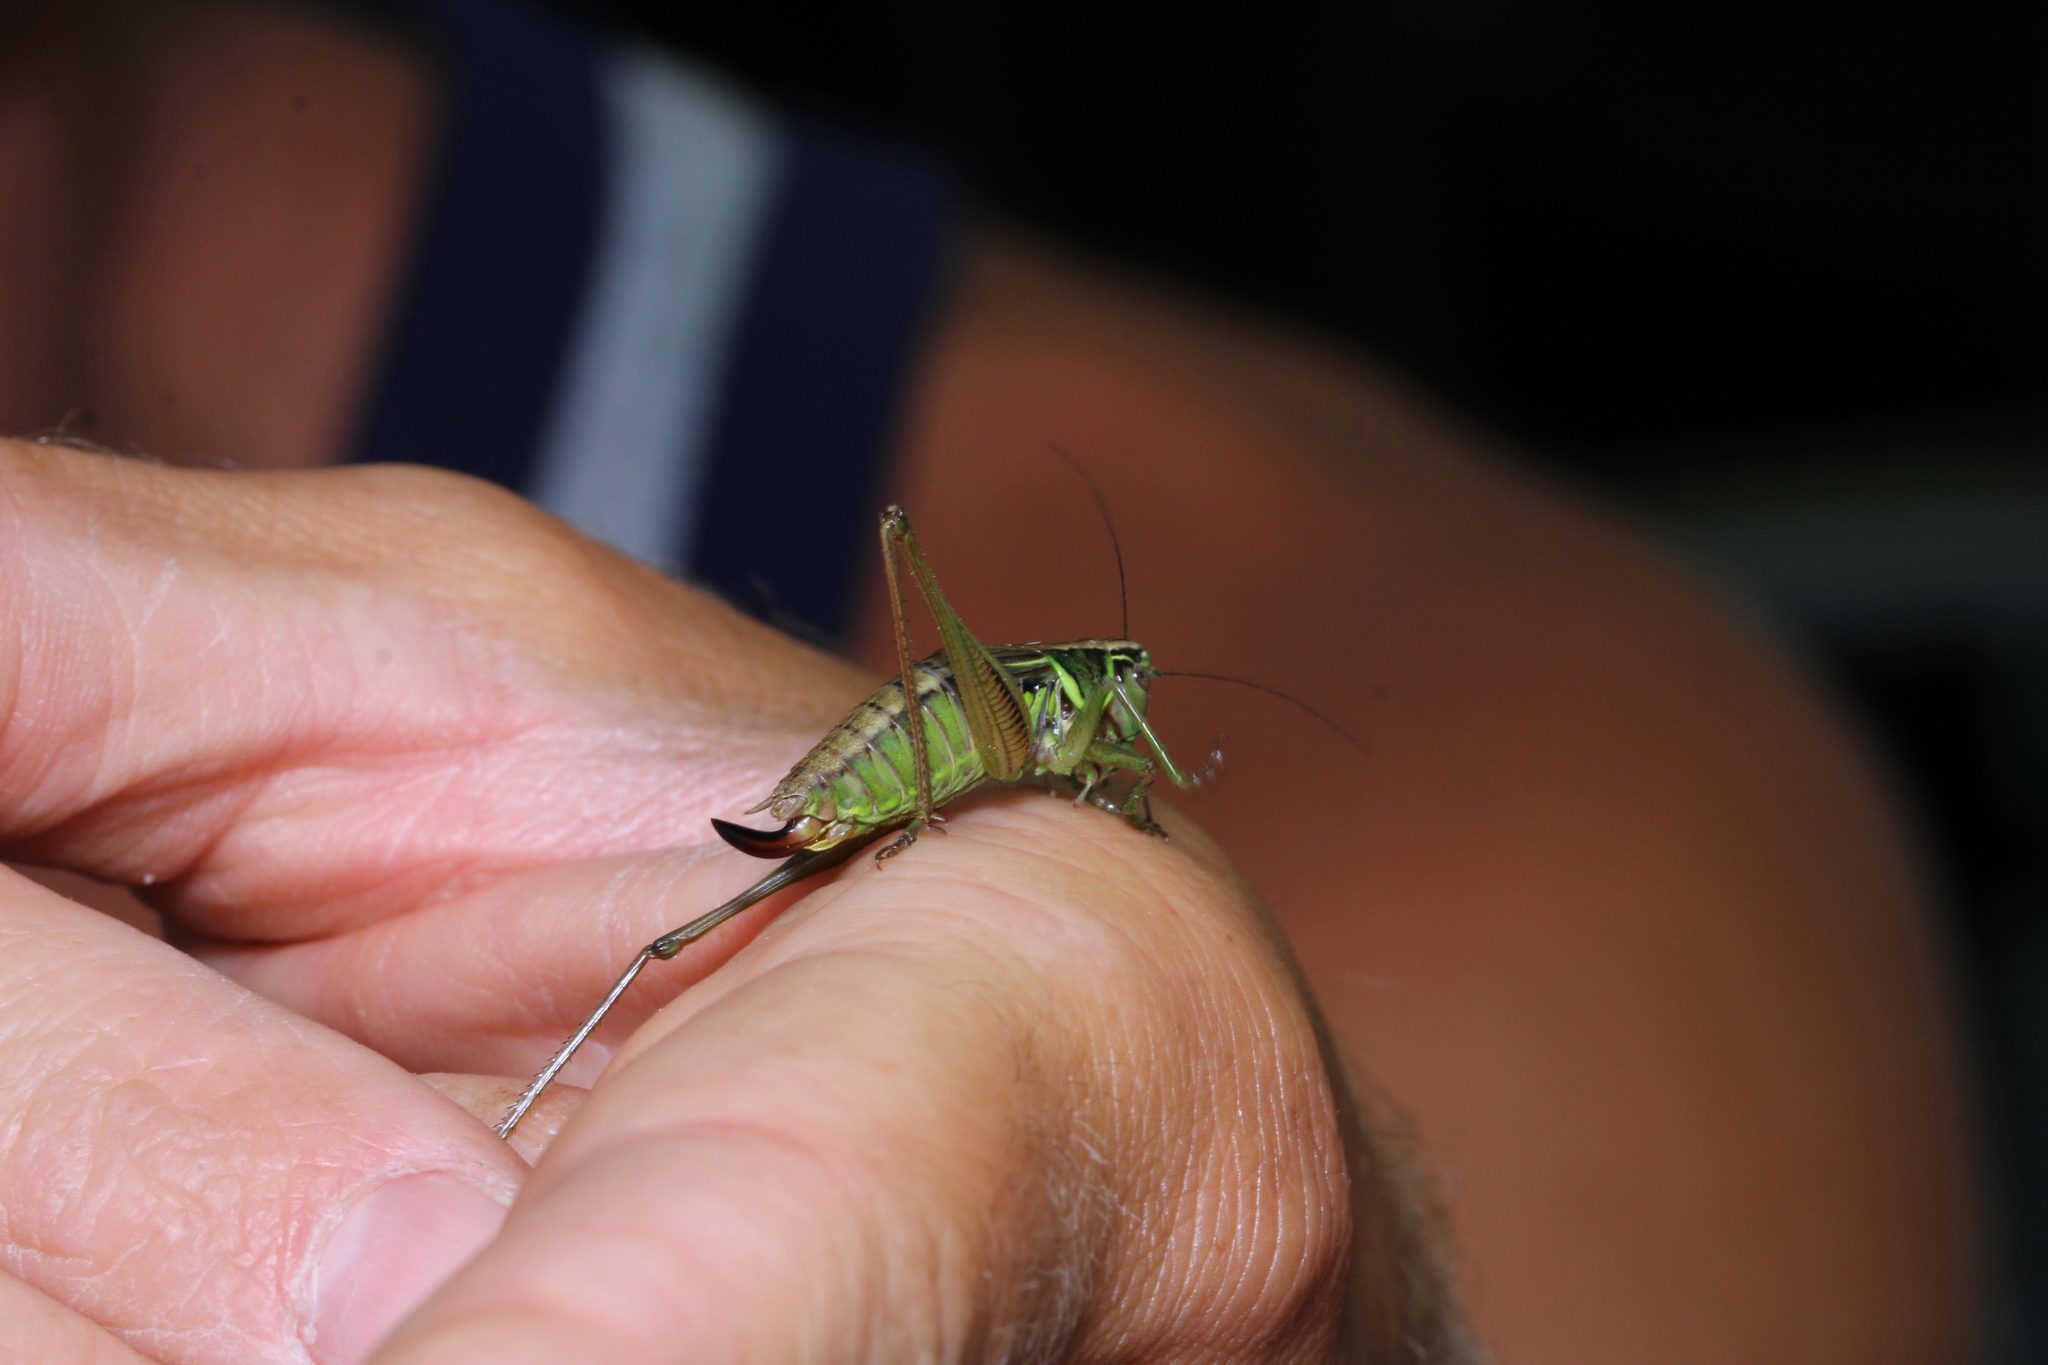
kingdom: Animalia
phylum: Arthropoda
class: Insecta
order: Orthoptera
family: Tettigoniidae
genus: Roeseliana
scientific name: Roeseliana roeselii
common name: Roesel's bush cricket
